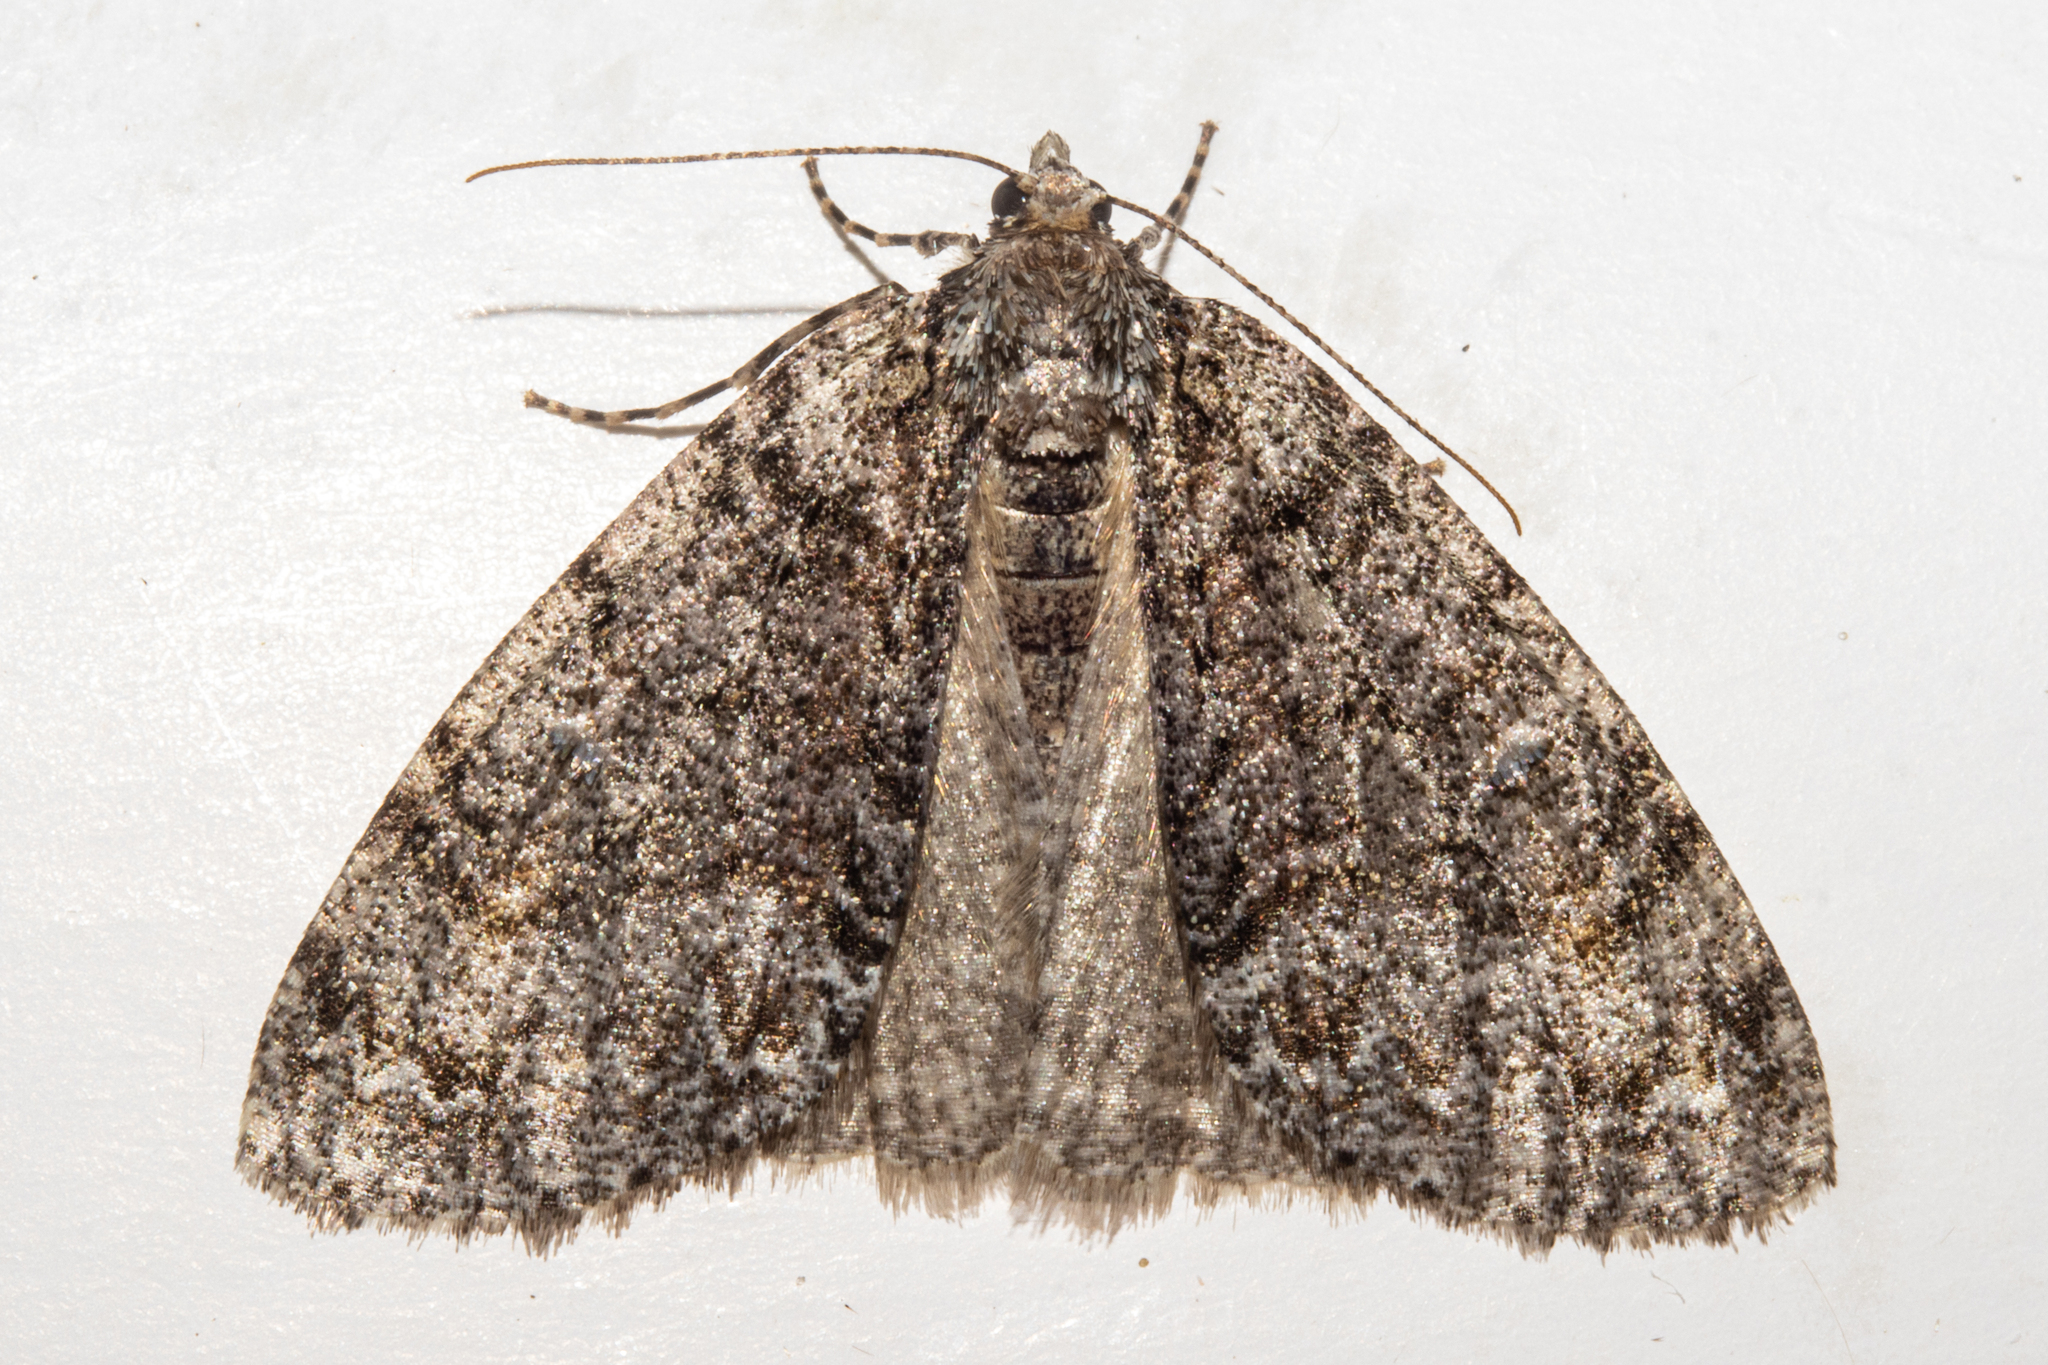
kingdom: Animalia
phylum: Arthropoda
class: Insecta
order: Lepidoptera
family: Geometridae
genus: Pseudocoremia
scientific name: Pseudocoremia suavis
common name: Common forest looper
